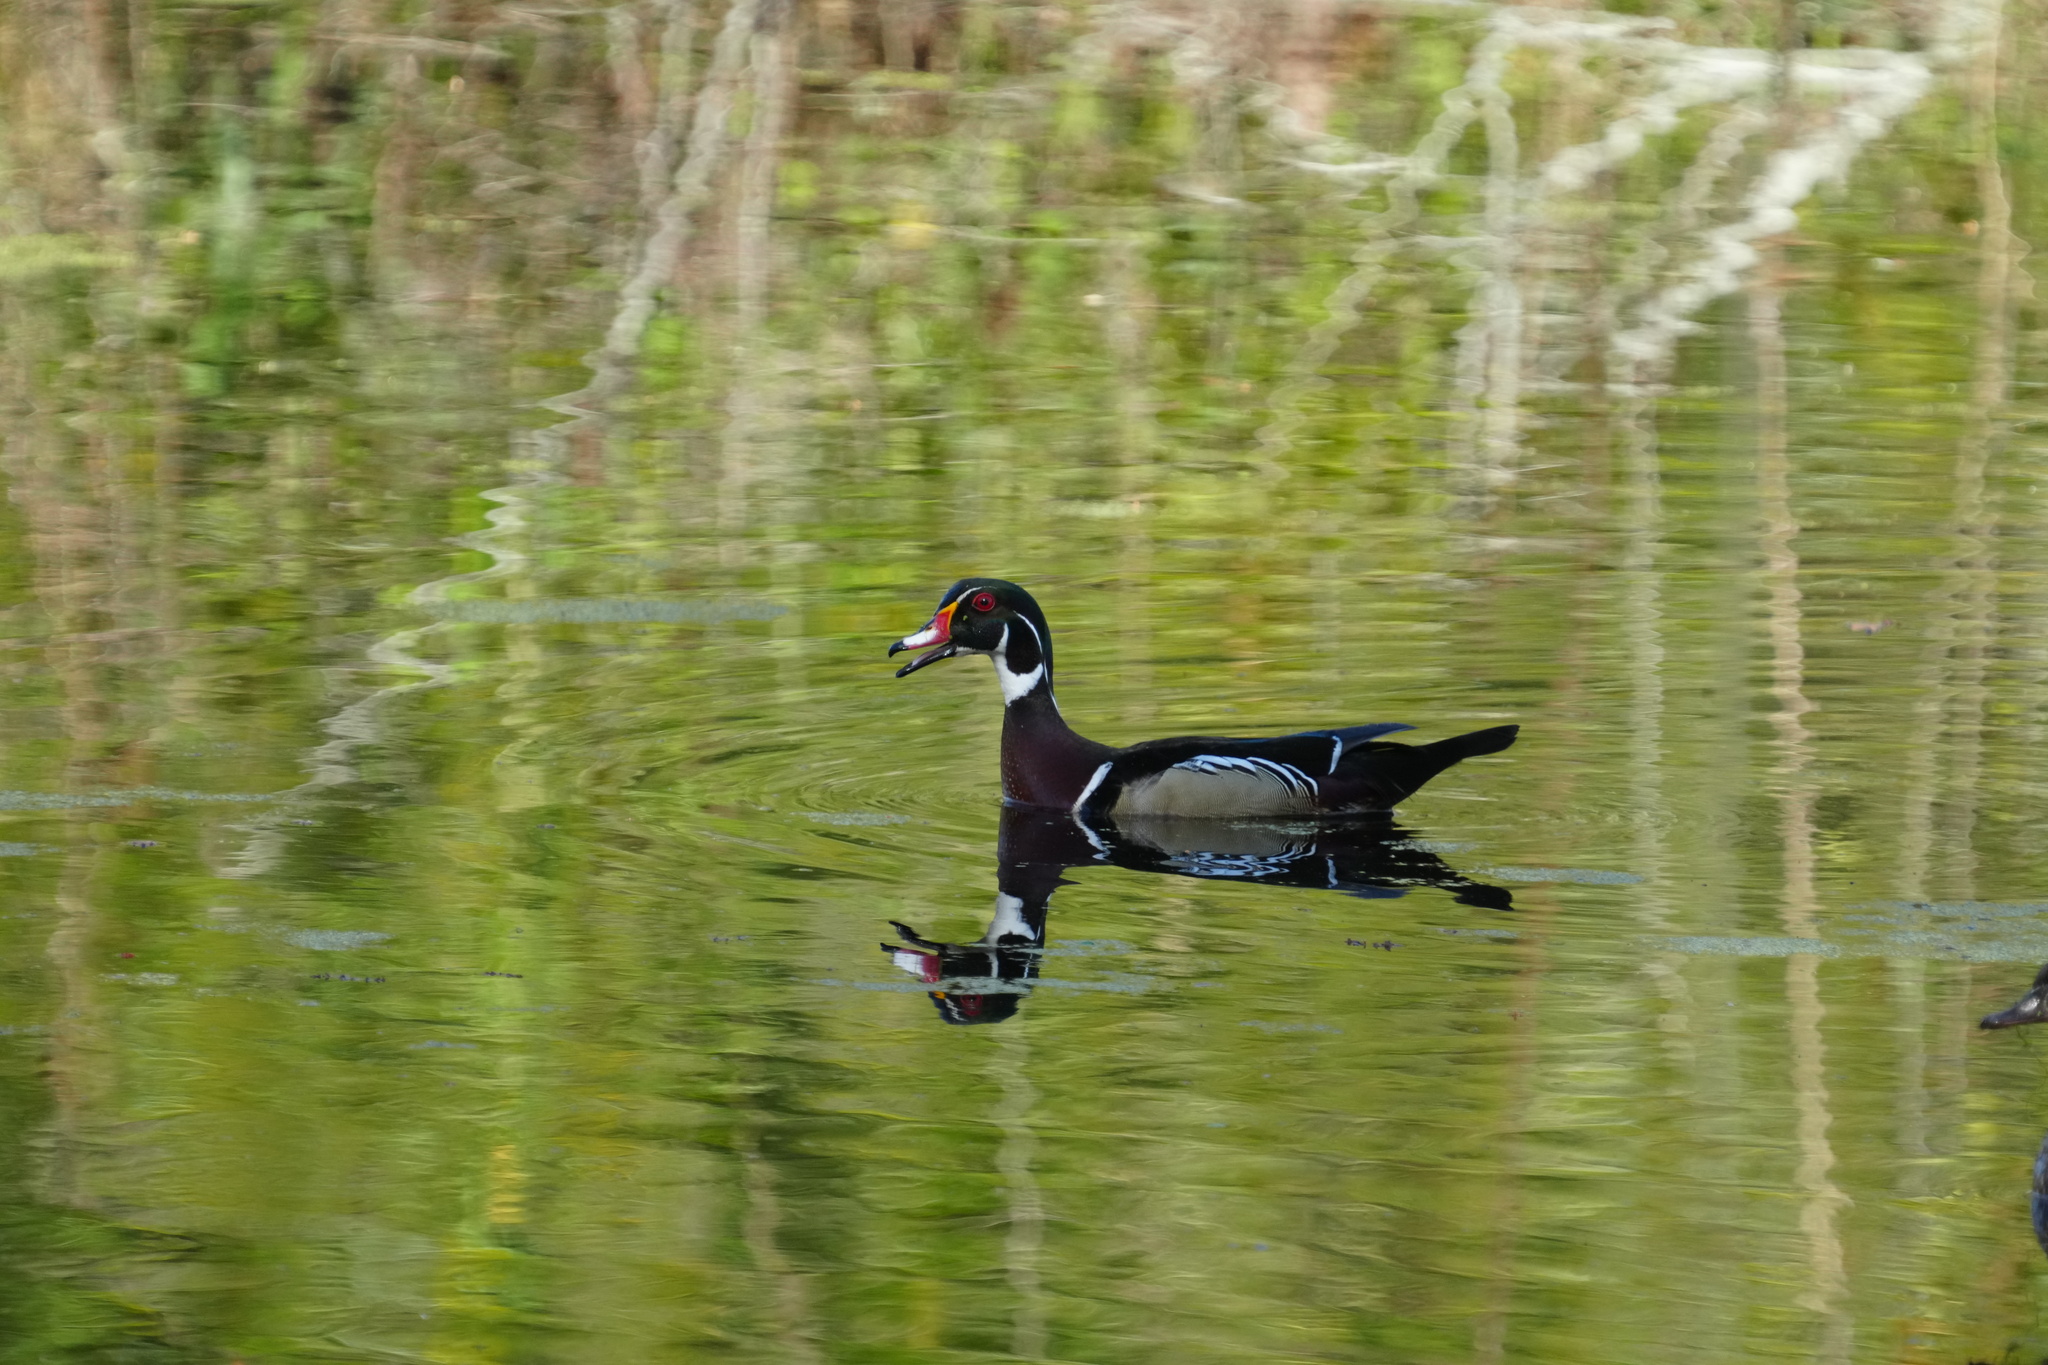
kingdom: Animalia
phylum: Chordata
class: Aves
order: Anseriformes
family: Anatidae
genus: Aix
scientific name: Aix sponsa
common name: Wood duck
